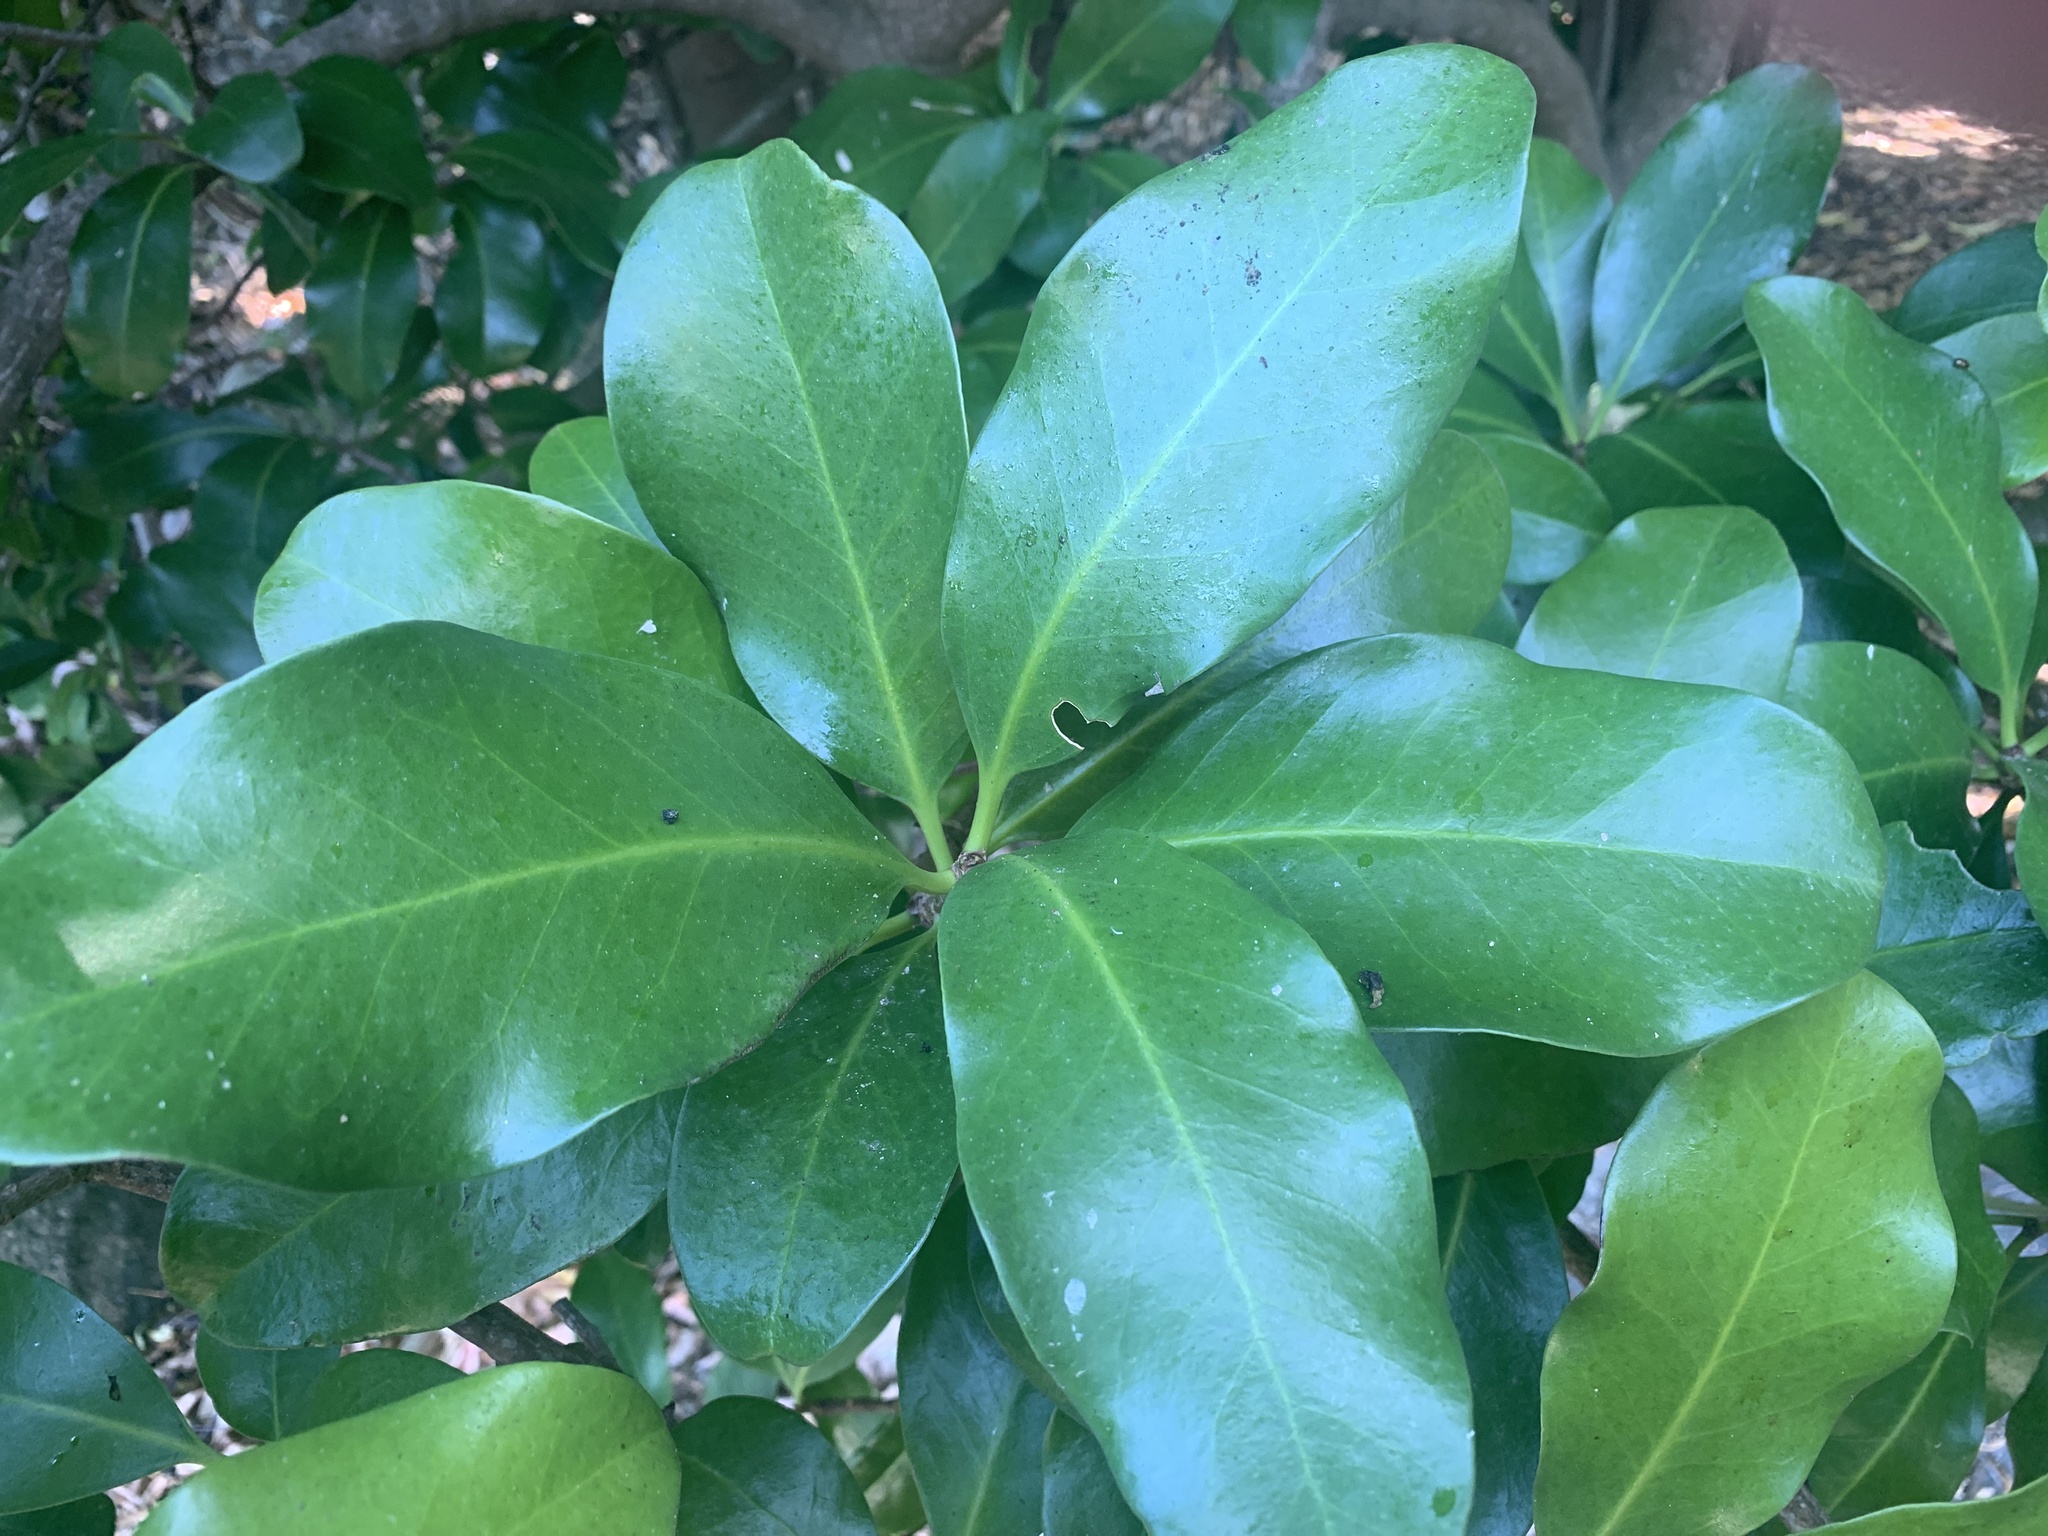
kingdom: Plantae
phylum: Tracheophyta
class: Magnoliopsida
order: Cucurbitales
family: Corynocarpaceae
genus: Corynocarpus
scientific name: Corynocarpus laevigatus
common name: New zealand laurel
